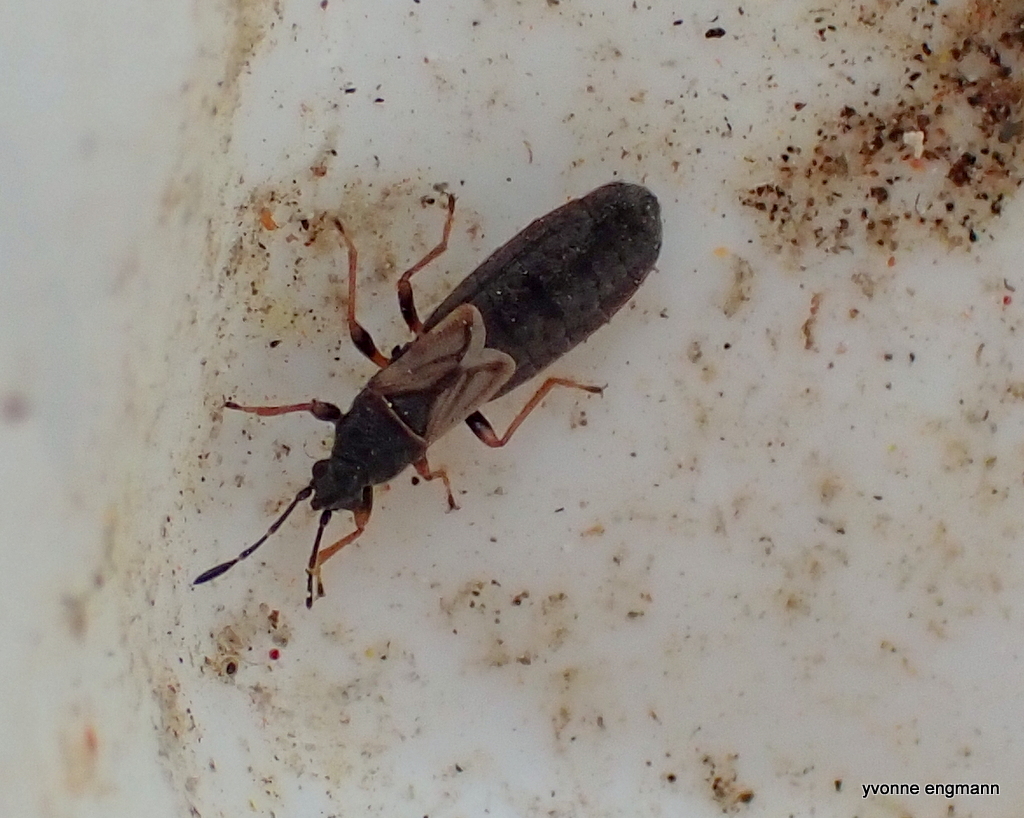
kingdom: Animalia
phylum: Arthropoda
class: Insecta
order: Hemiptera
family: Blissidae
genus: Ischnodemus
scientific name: Ischnodemus sabuleti
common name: European cinchbug
